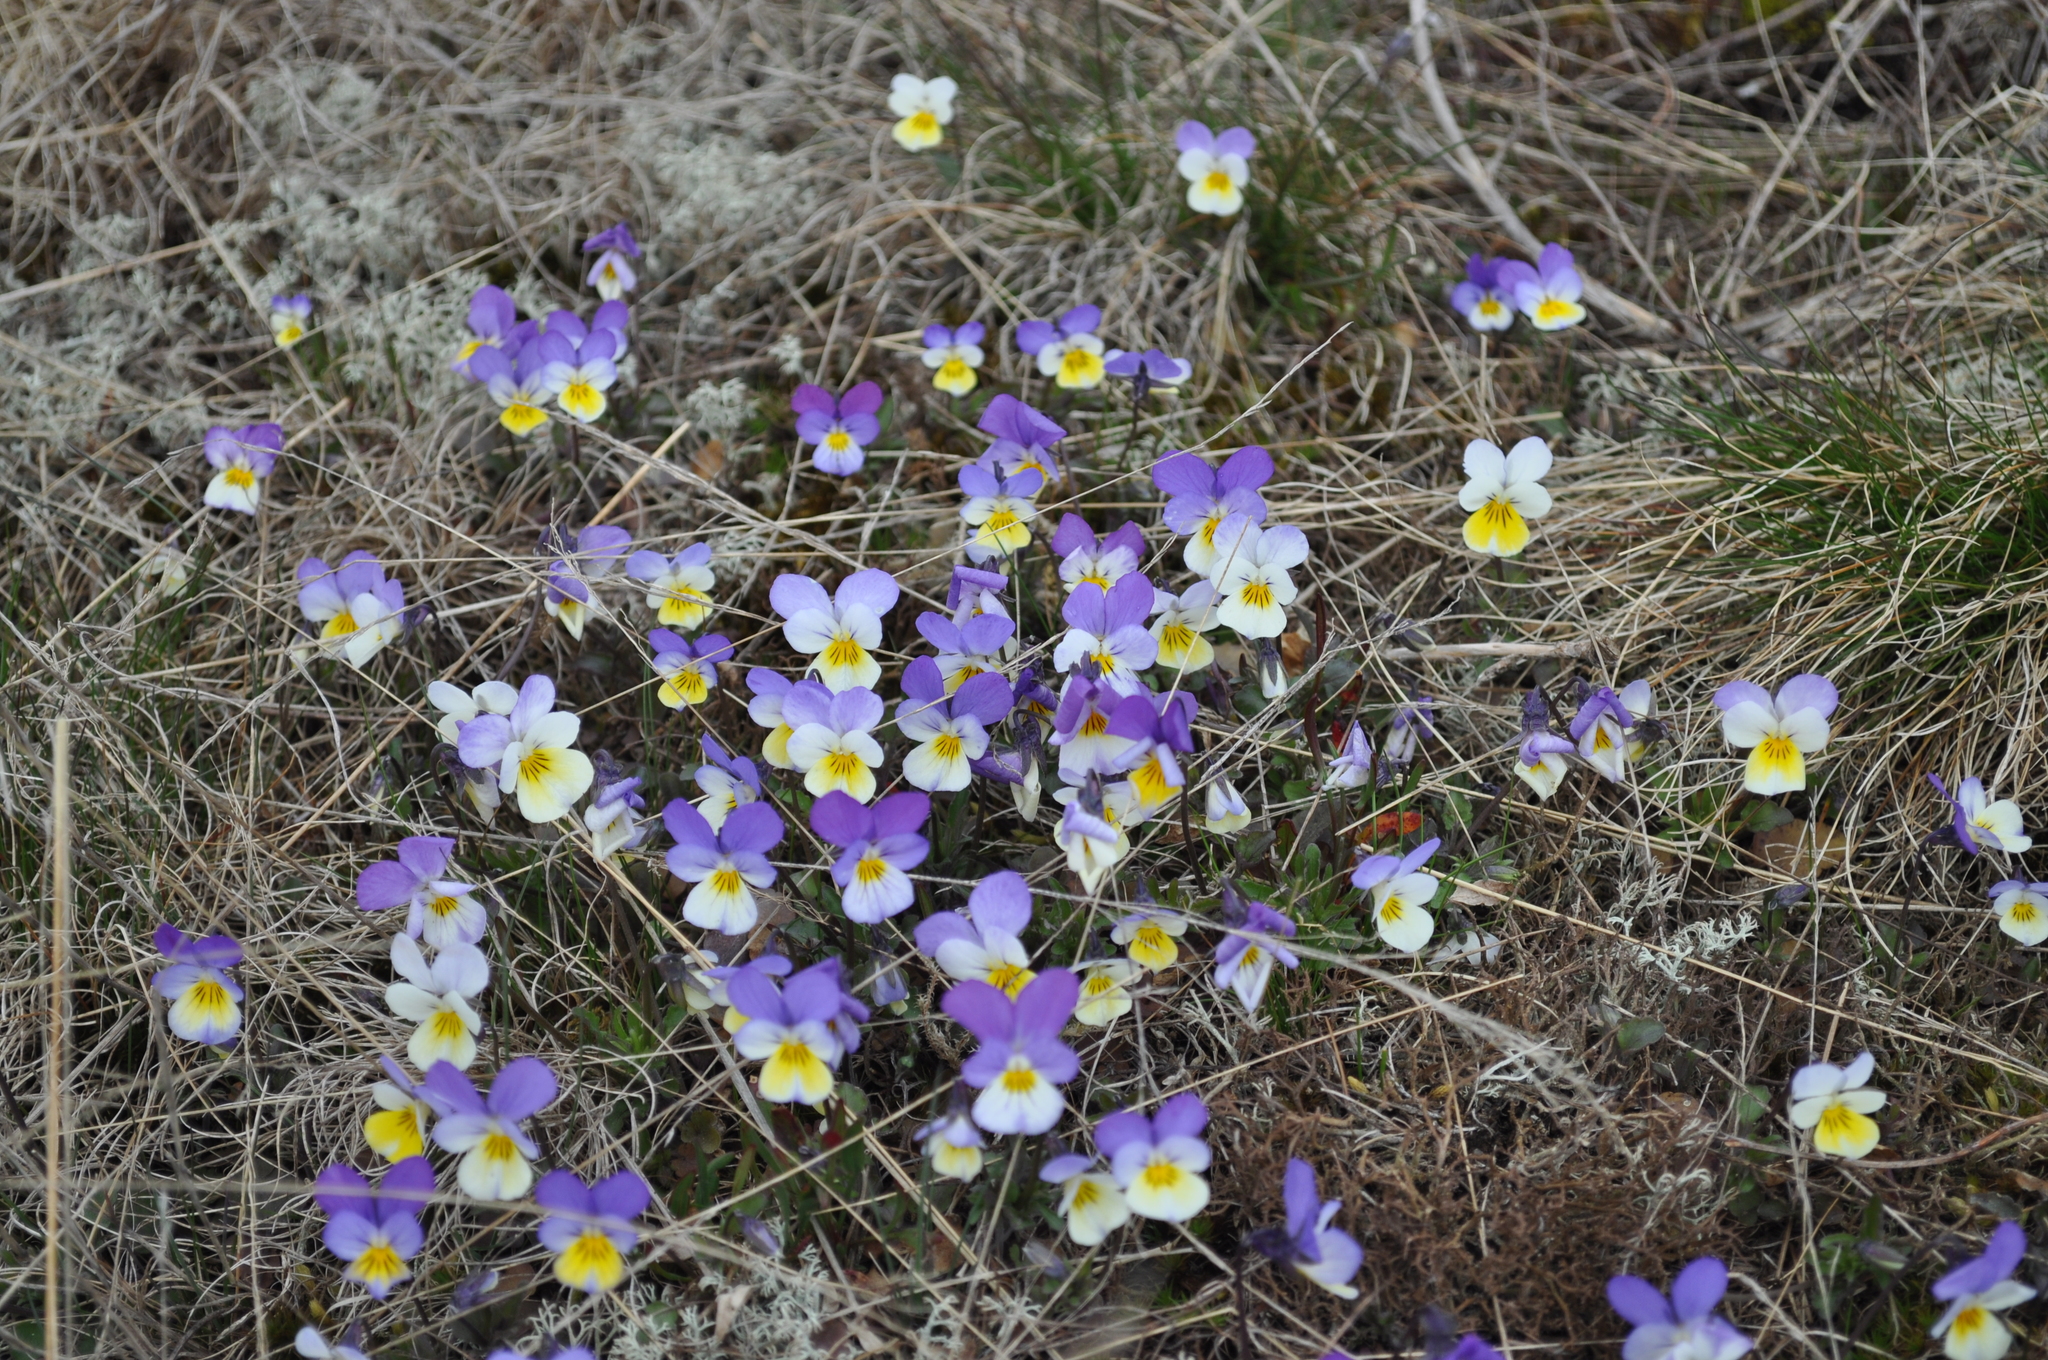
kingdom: Plantae
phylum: Tracheophyta
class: Magnoliopsida
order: Malpighiales
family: Violaceae
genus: Viola
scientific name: Viola tricolor
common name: Pansy
